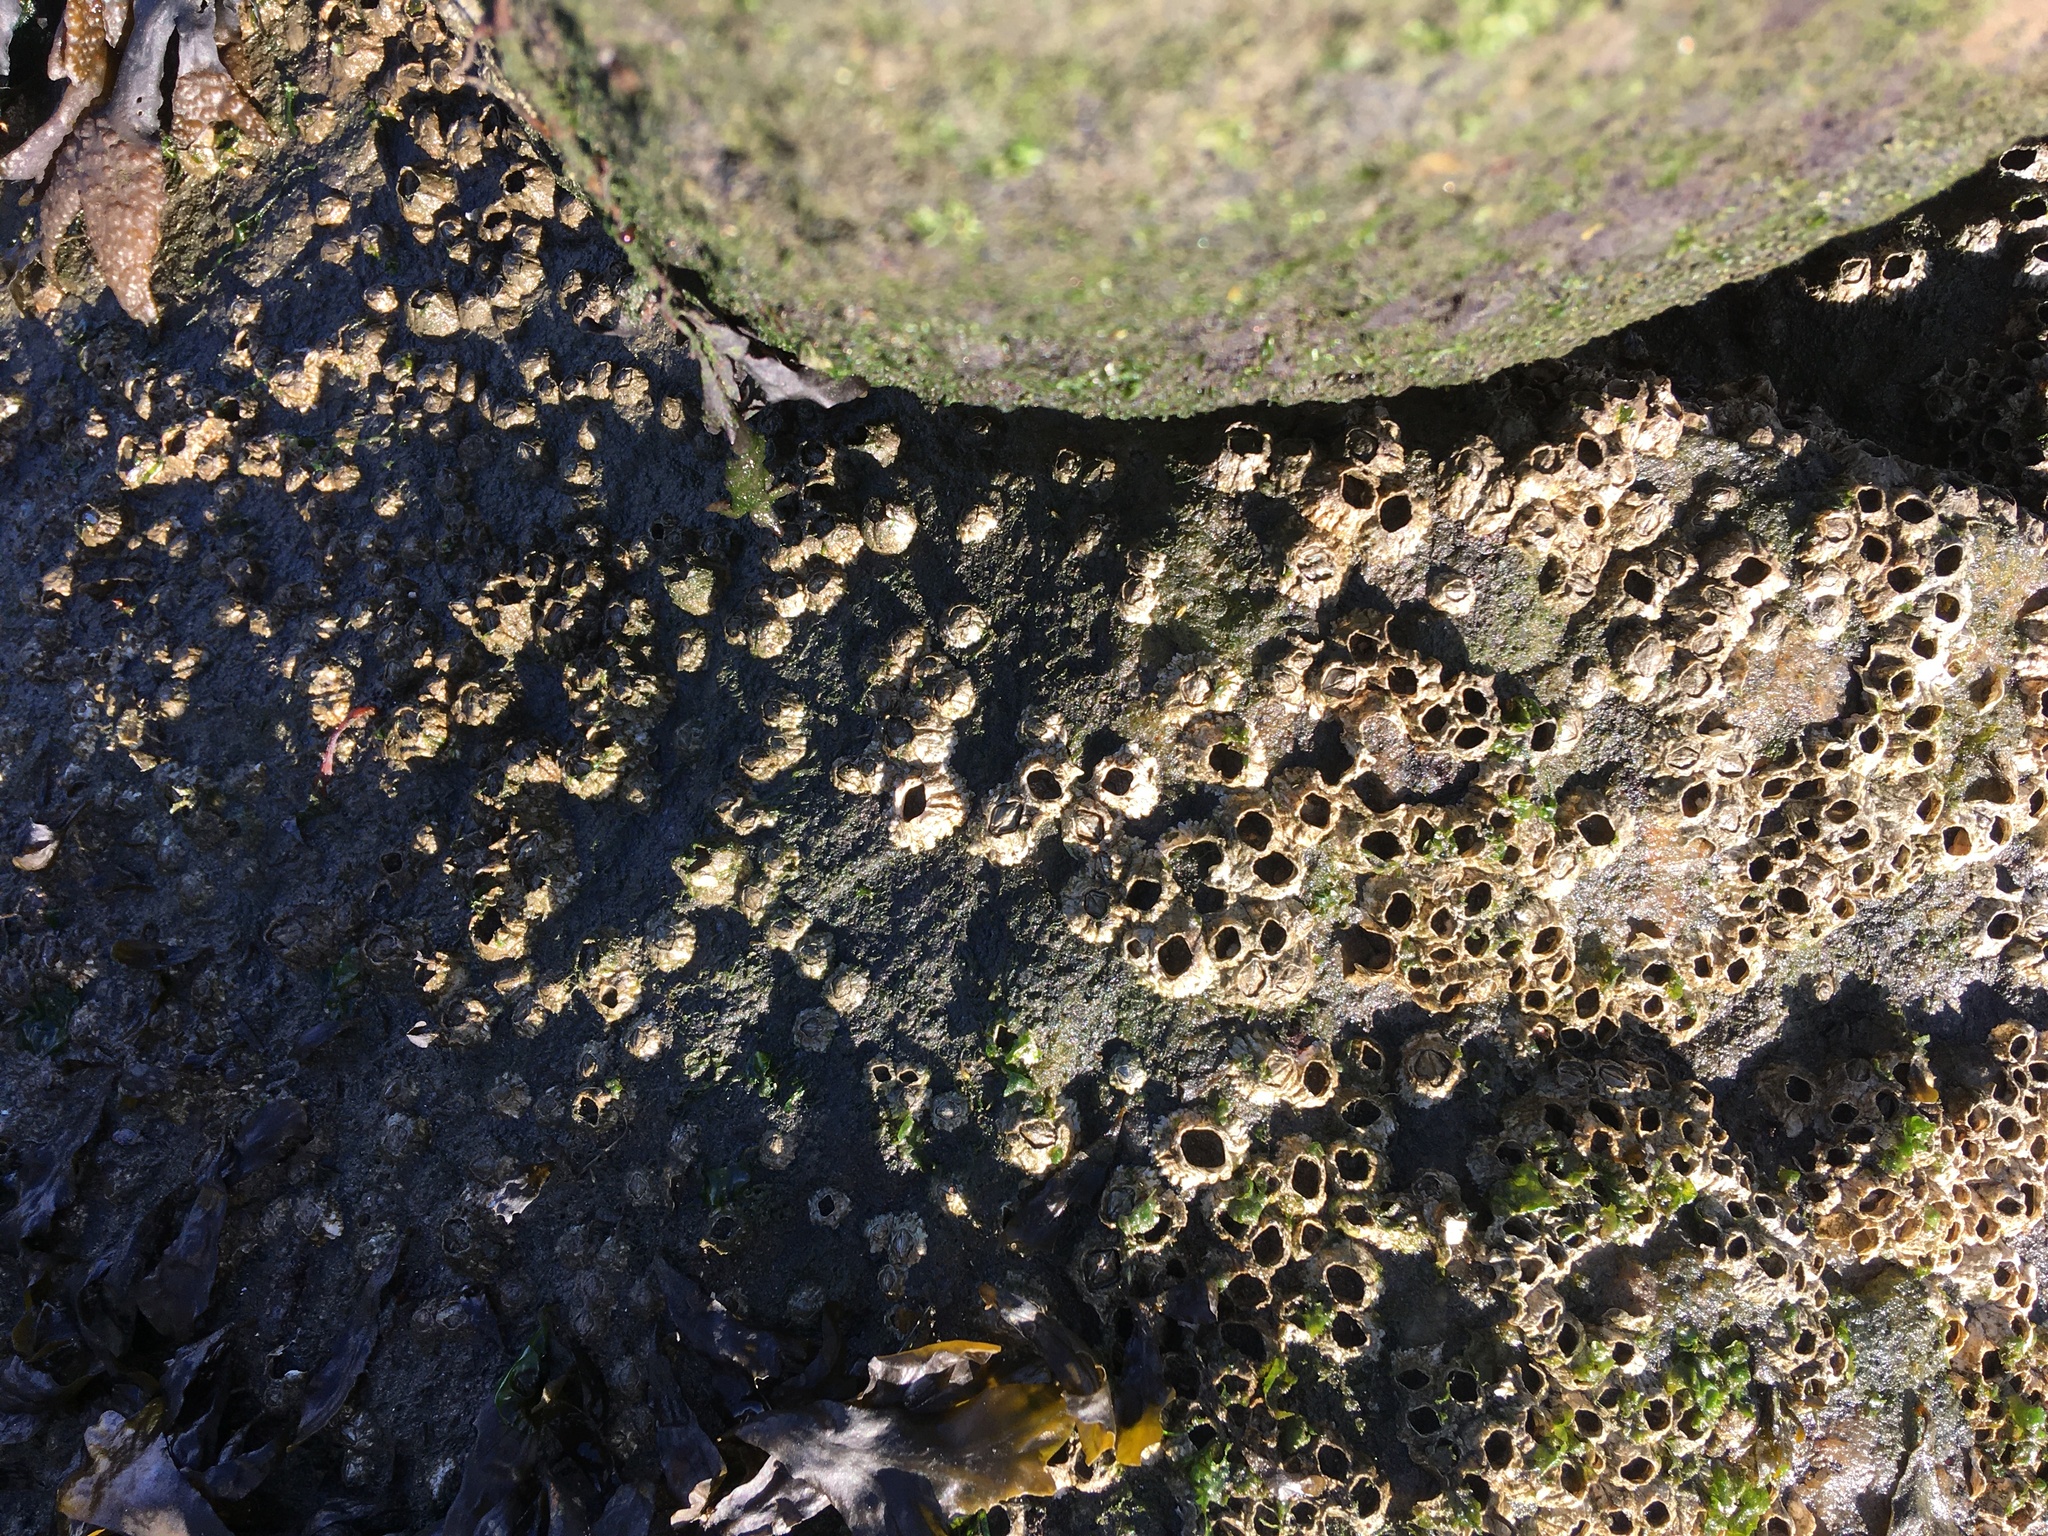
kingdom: Animalia
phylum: Arthropoda
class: Maxillopoda
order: Sessilia
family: Archaeobalanidae
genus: Semibalanus
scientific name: Semibalanus balanoides
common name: Acorn barnacle
